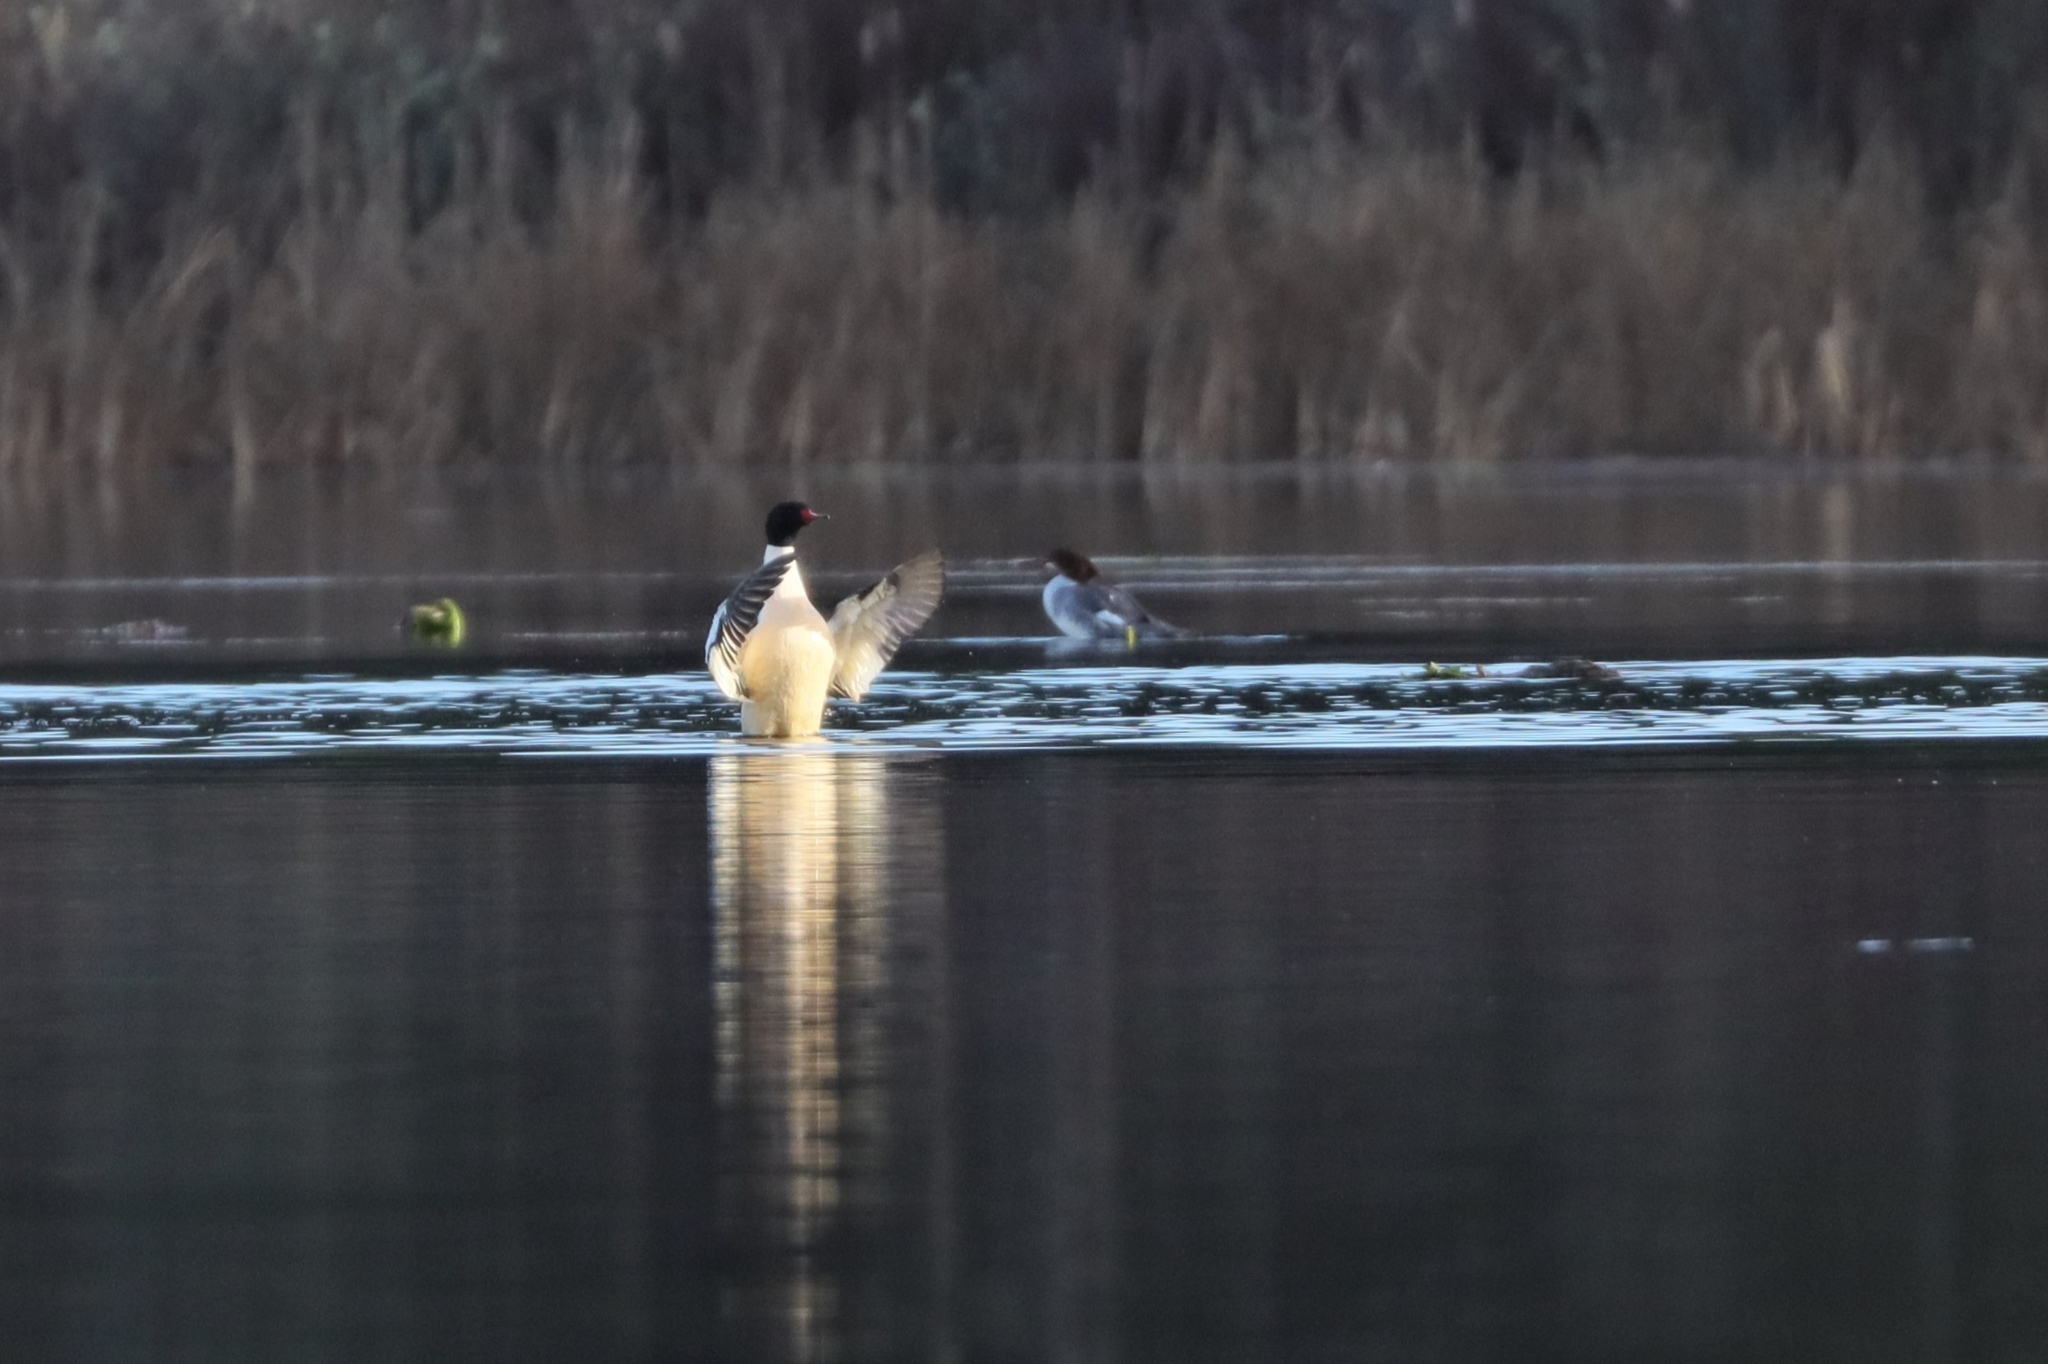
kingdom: Animalia
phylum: Chordata
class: Aves
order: Anseriformes
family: Anatidae
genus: Mergus
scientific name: Mergus merganser
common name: Common merganser
